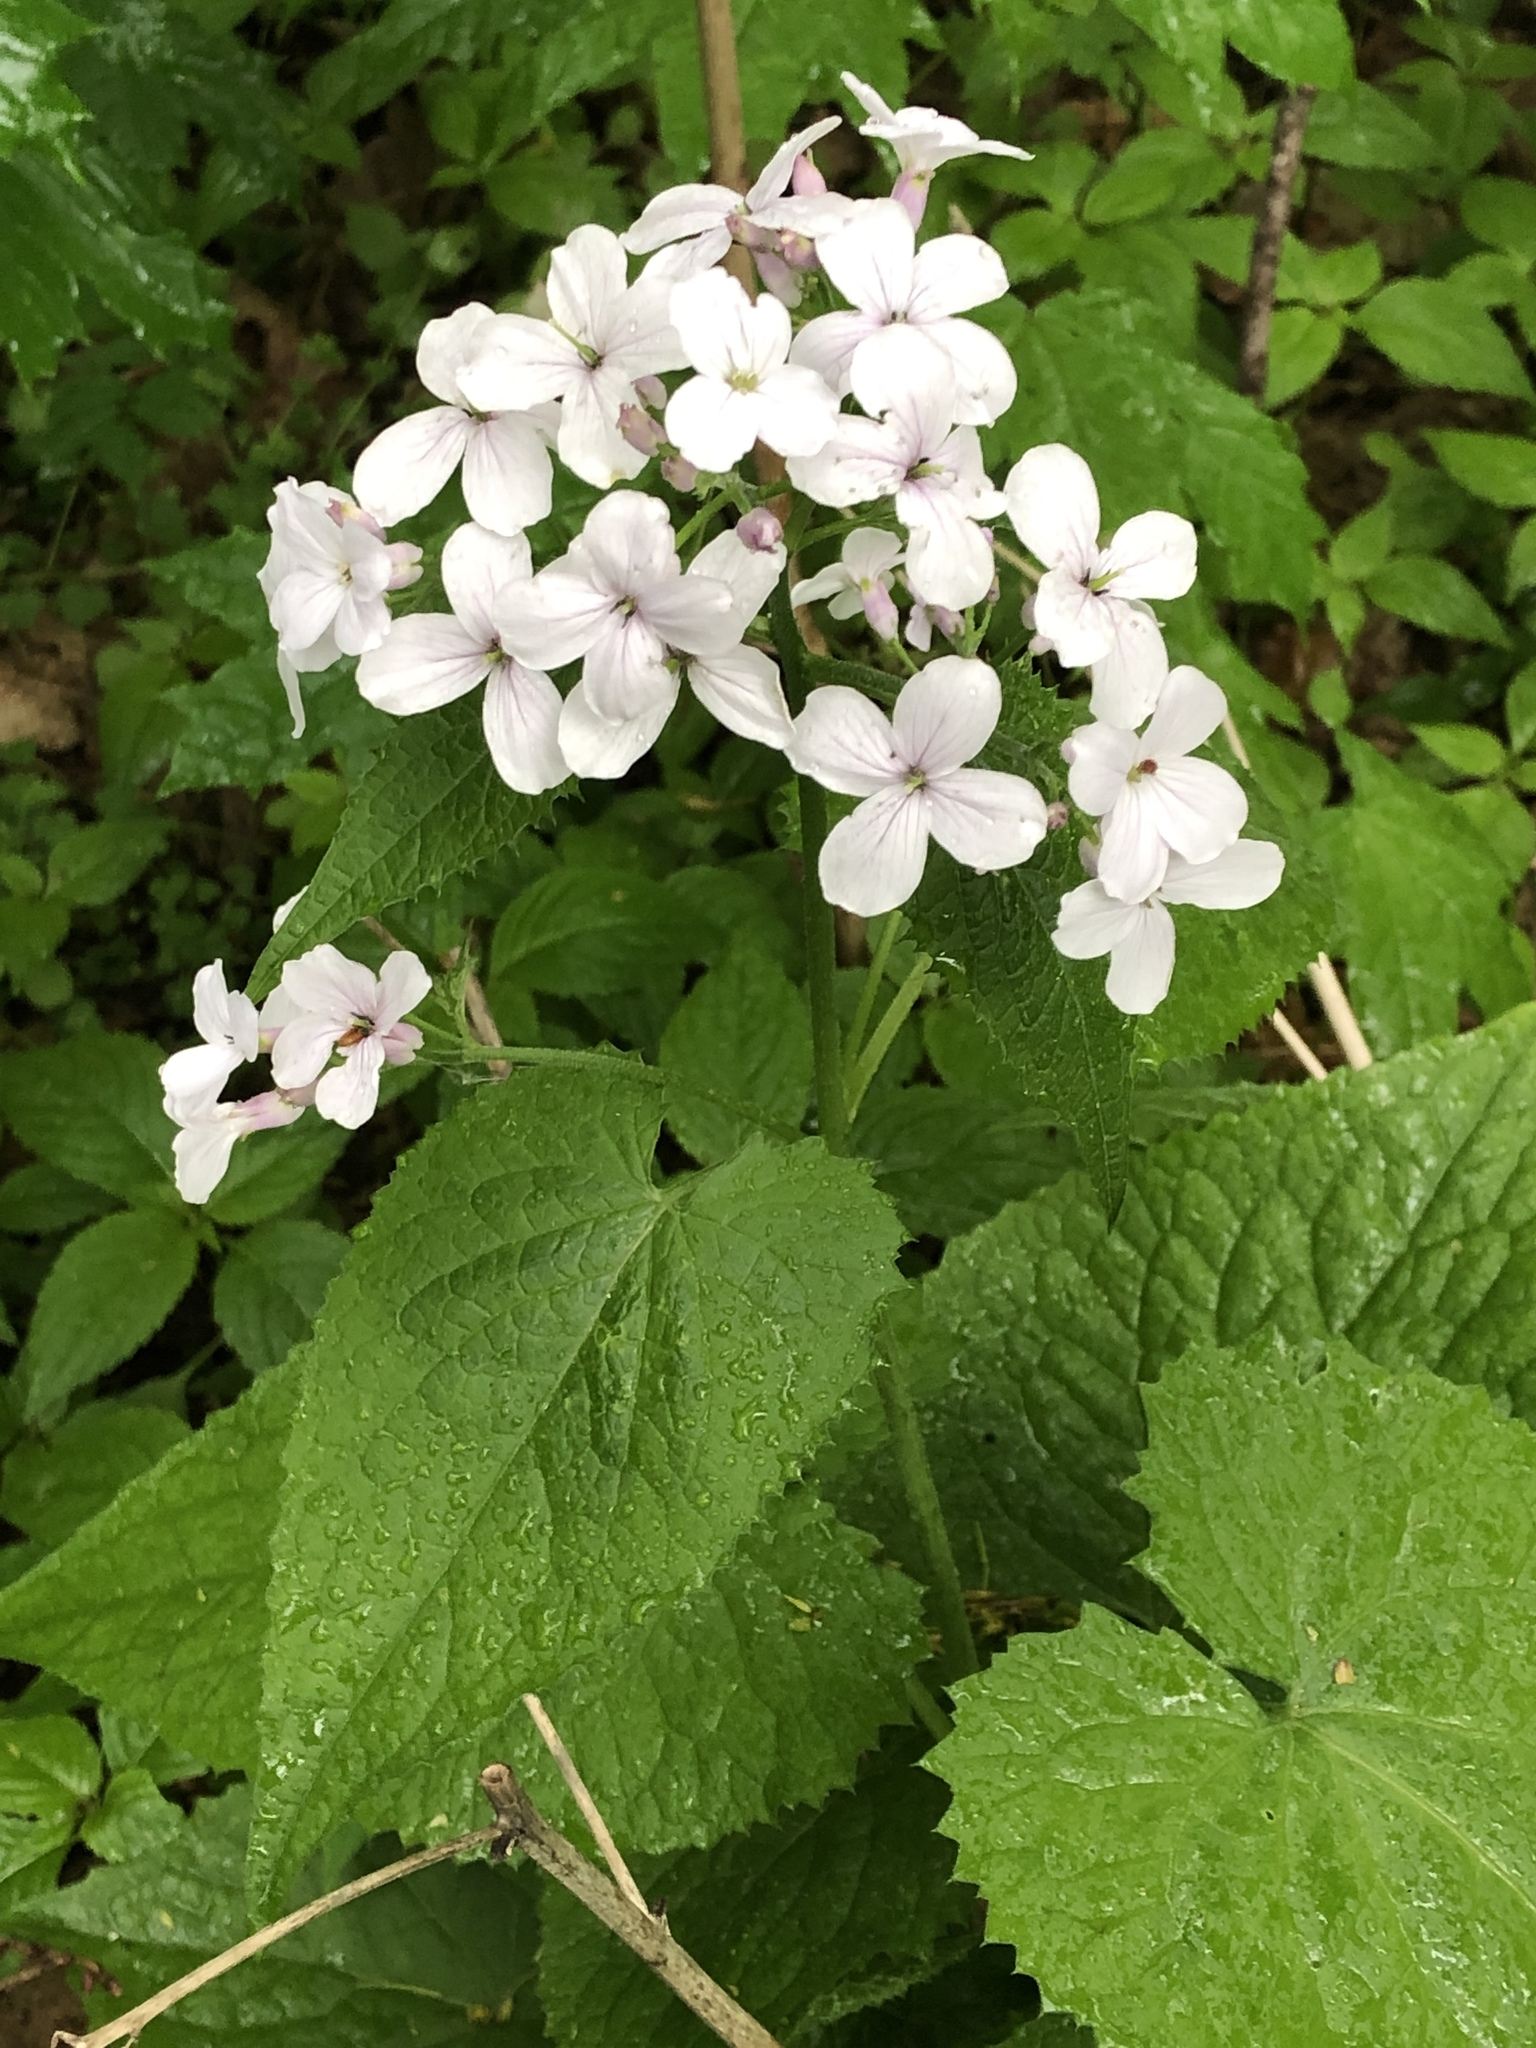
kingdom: Plantae
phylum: Tracheophyta
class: Magnoliopsida
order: Brassicales
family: Brassicaceae
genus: Lunaria
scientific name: Lunaria rediviva
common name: Perennial honesty
